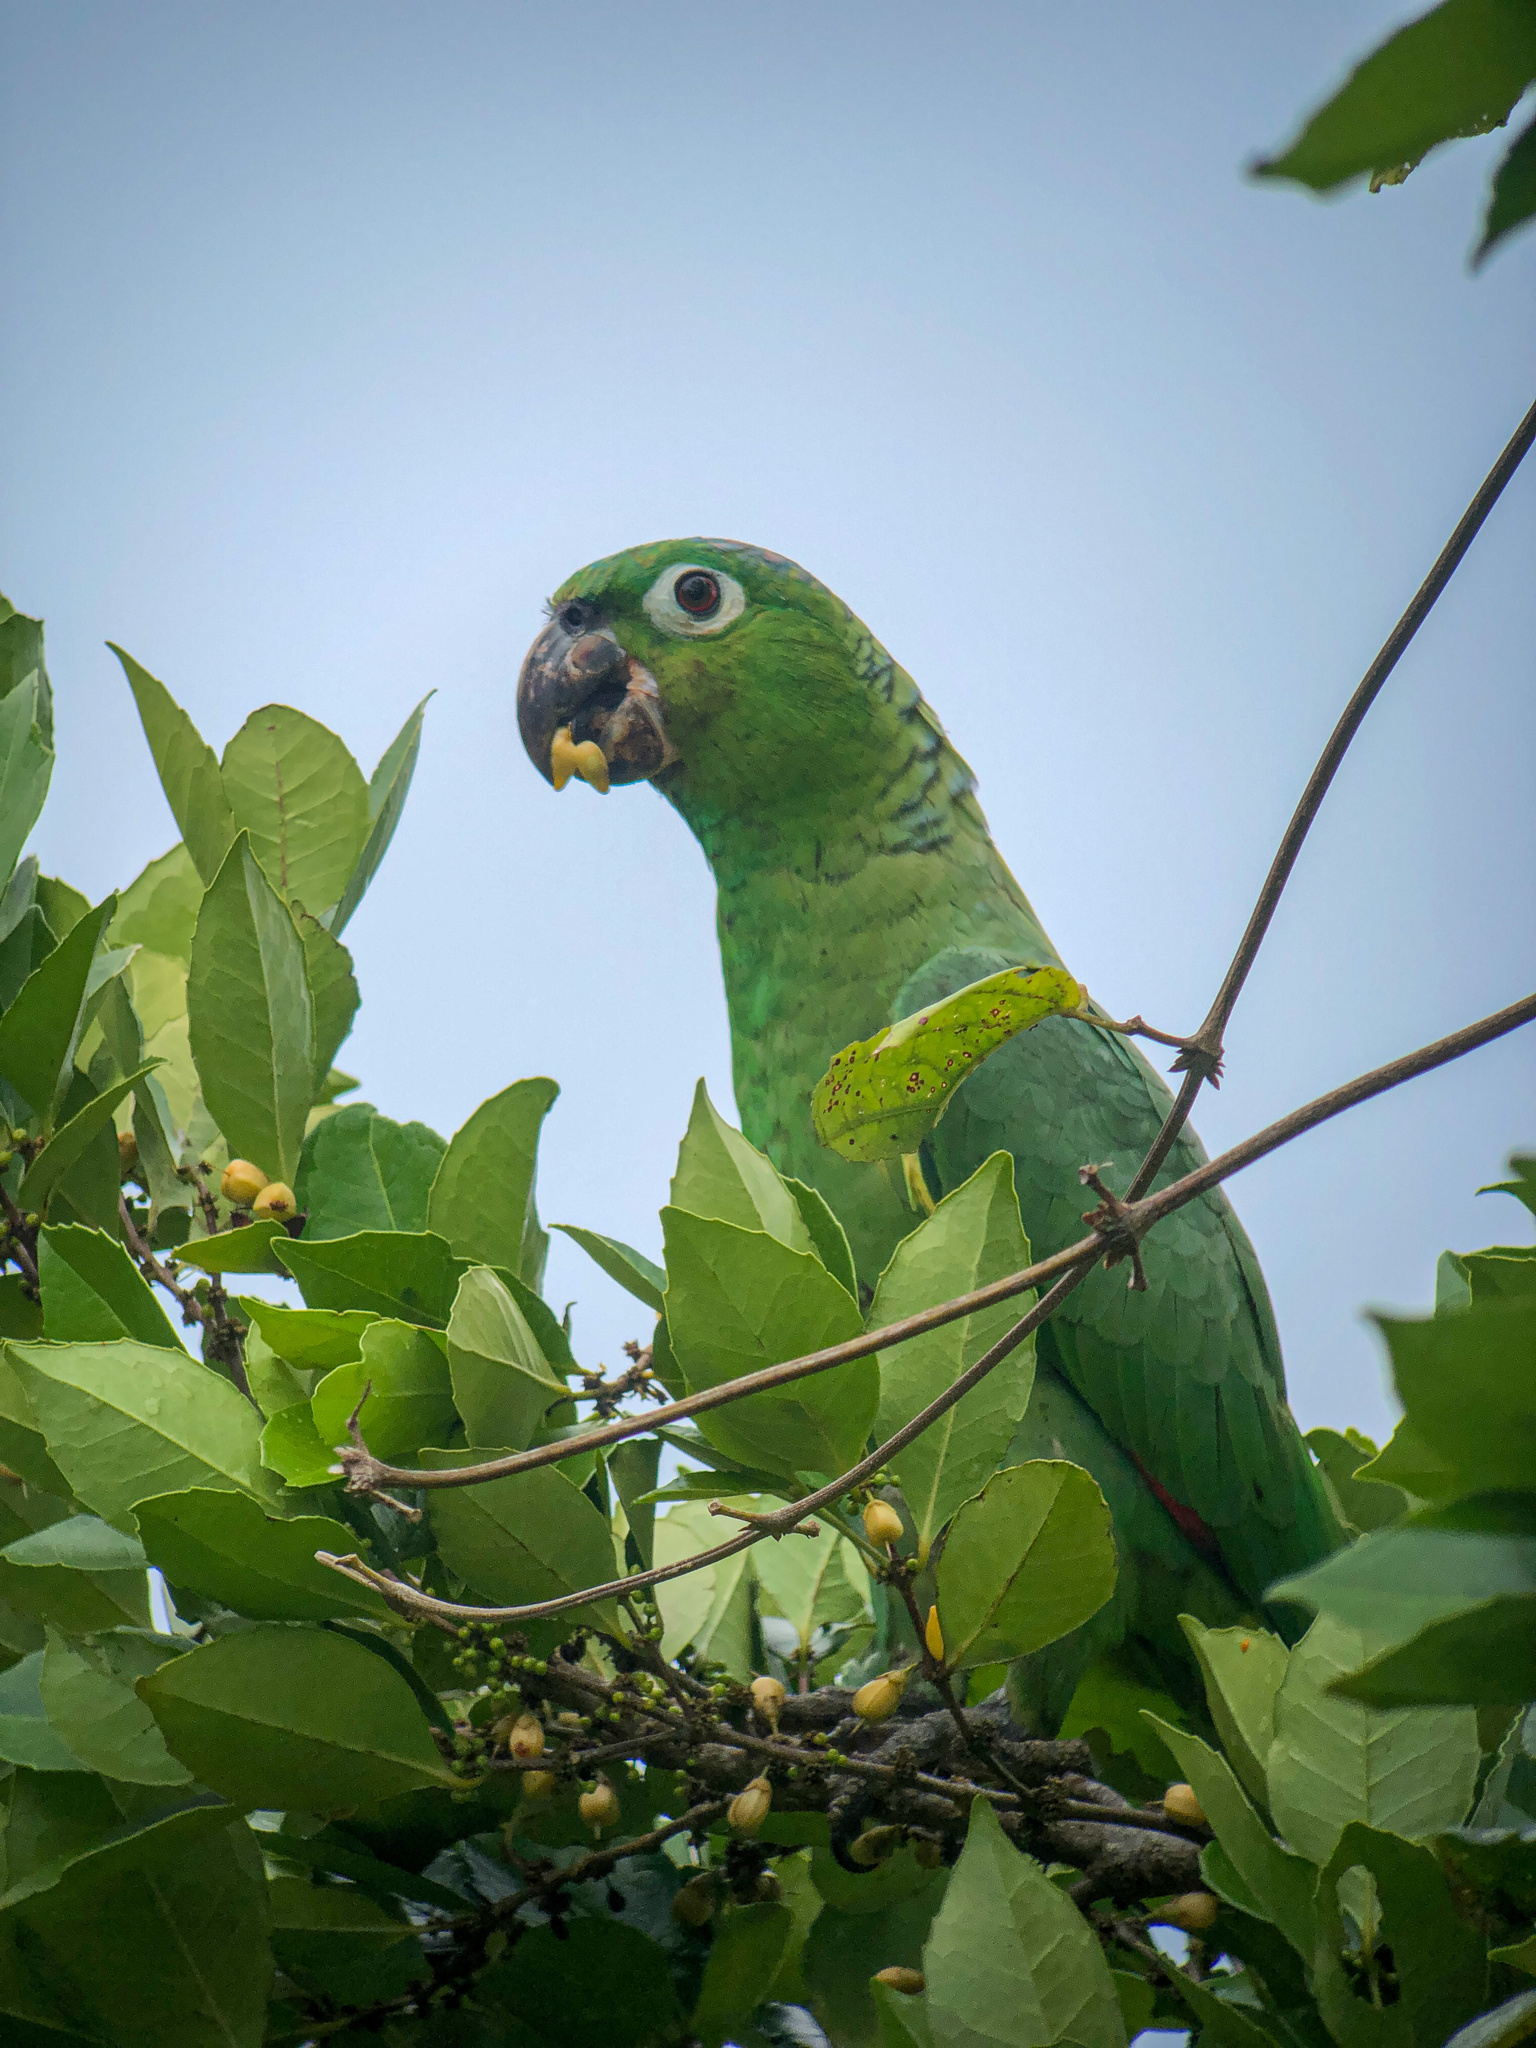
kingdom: Animalia
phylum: Chordata
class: Aves
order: Psittaciformes
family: Psittacidae
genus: Amazona
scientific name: Amazona farinosa
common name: Mealy parrot
